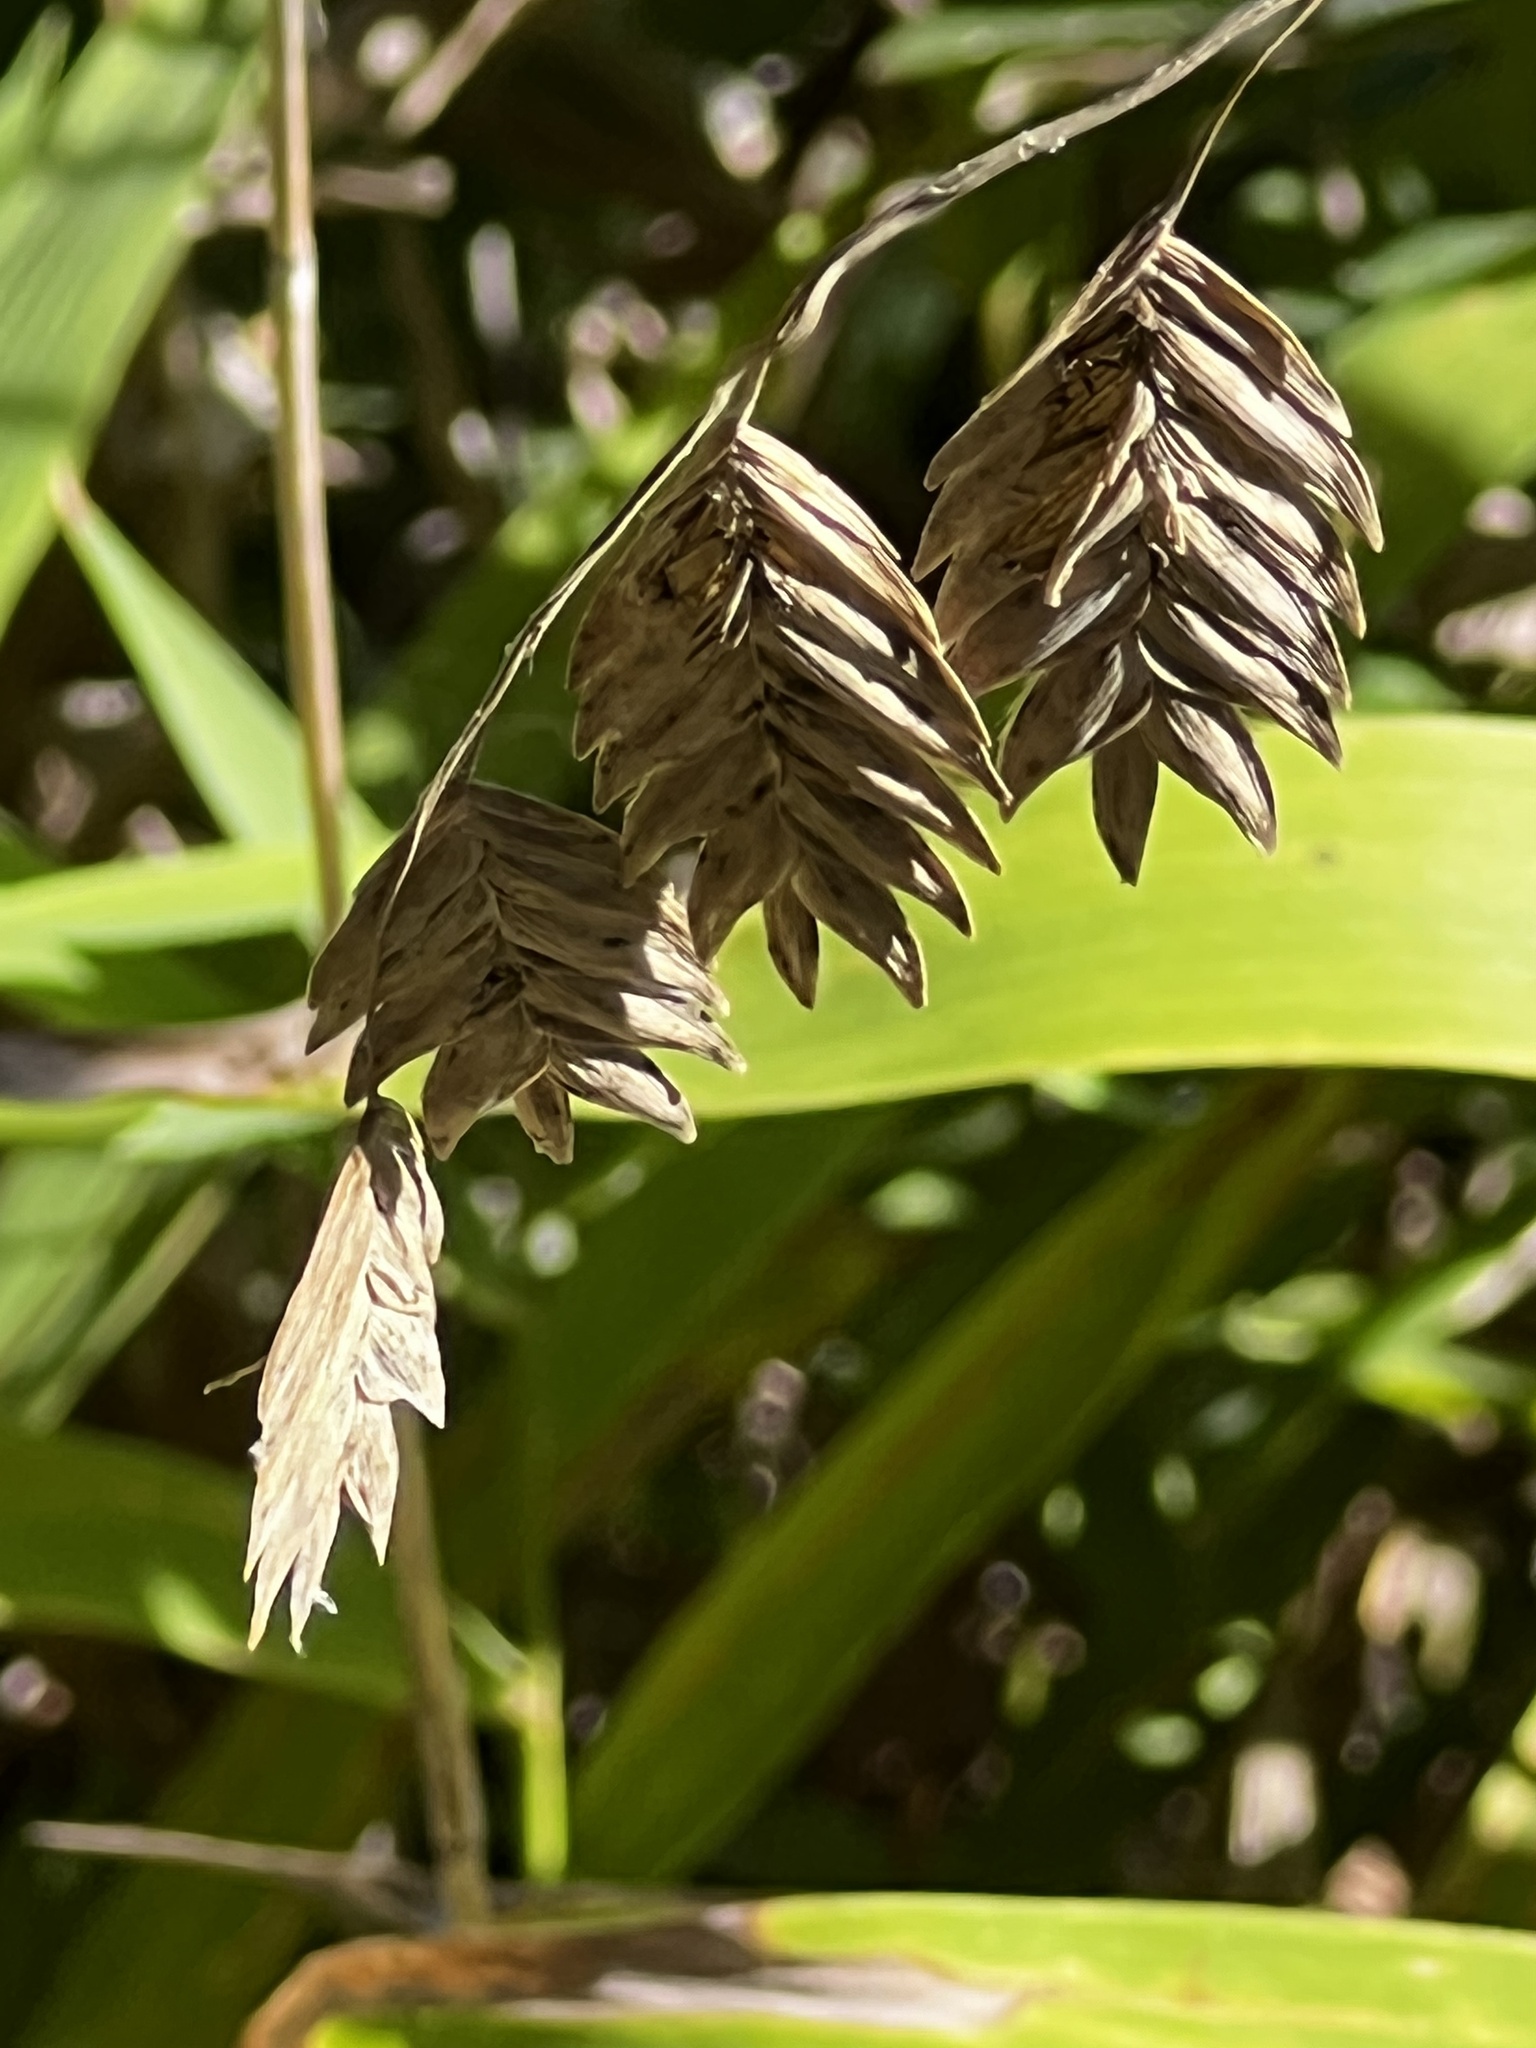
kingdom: Plantae
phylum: Tracheophyta
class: Liliopsida
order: Poales
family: Poaceae
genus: Chasmanthium
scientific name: Chasmanthium latifolium
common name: Broad-leaved chasmanthium
